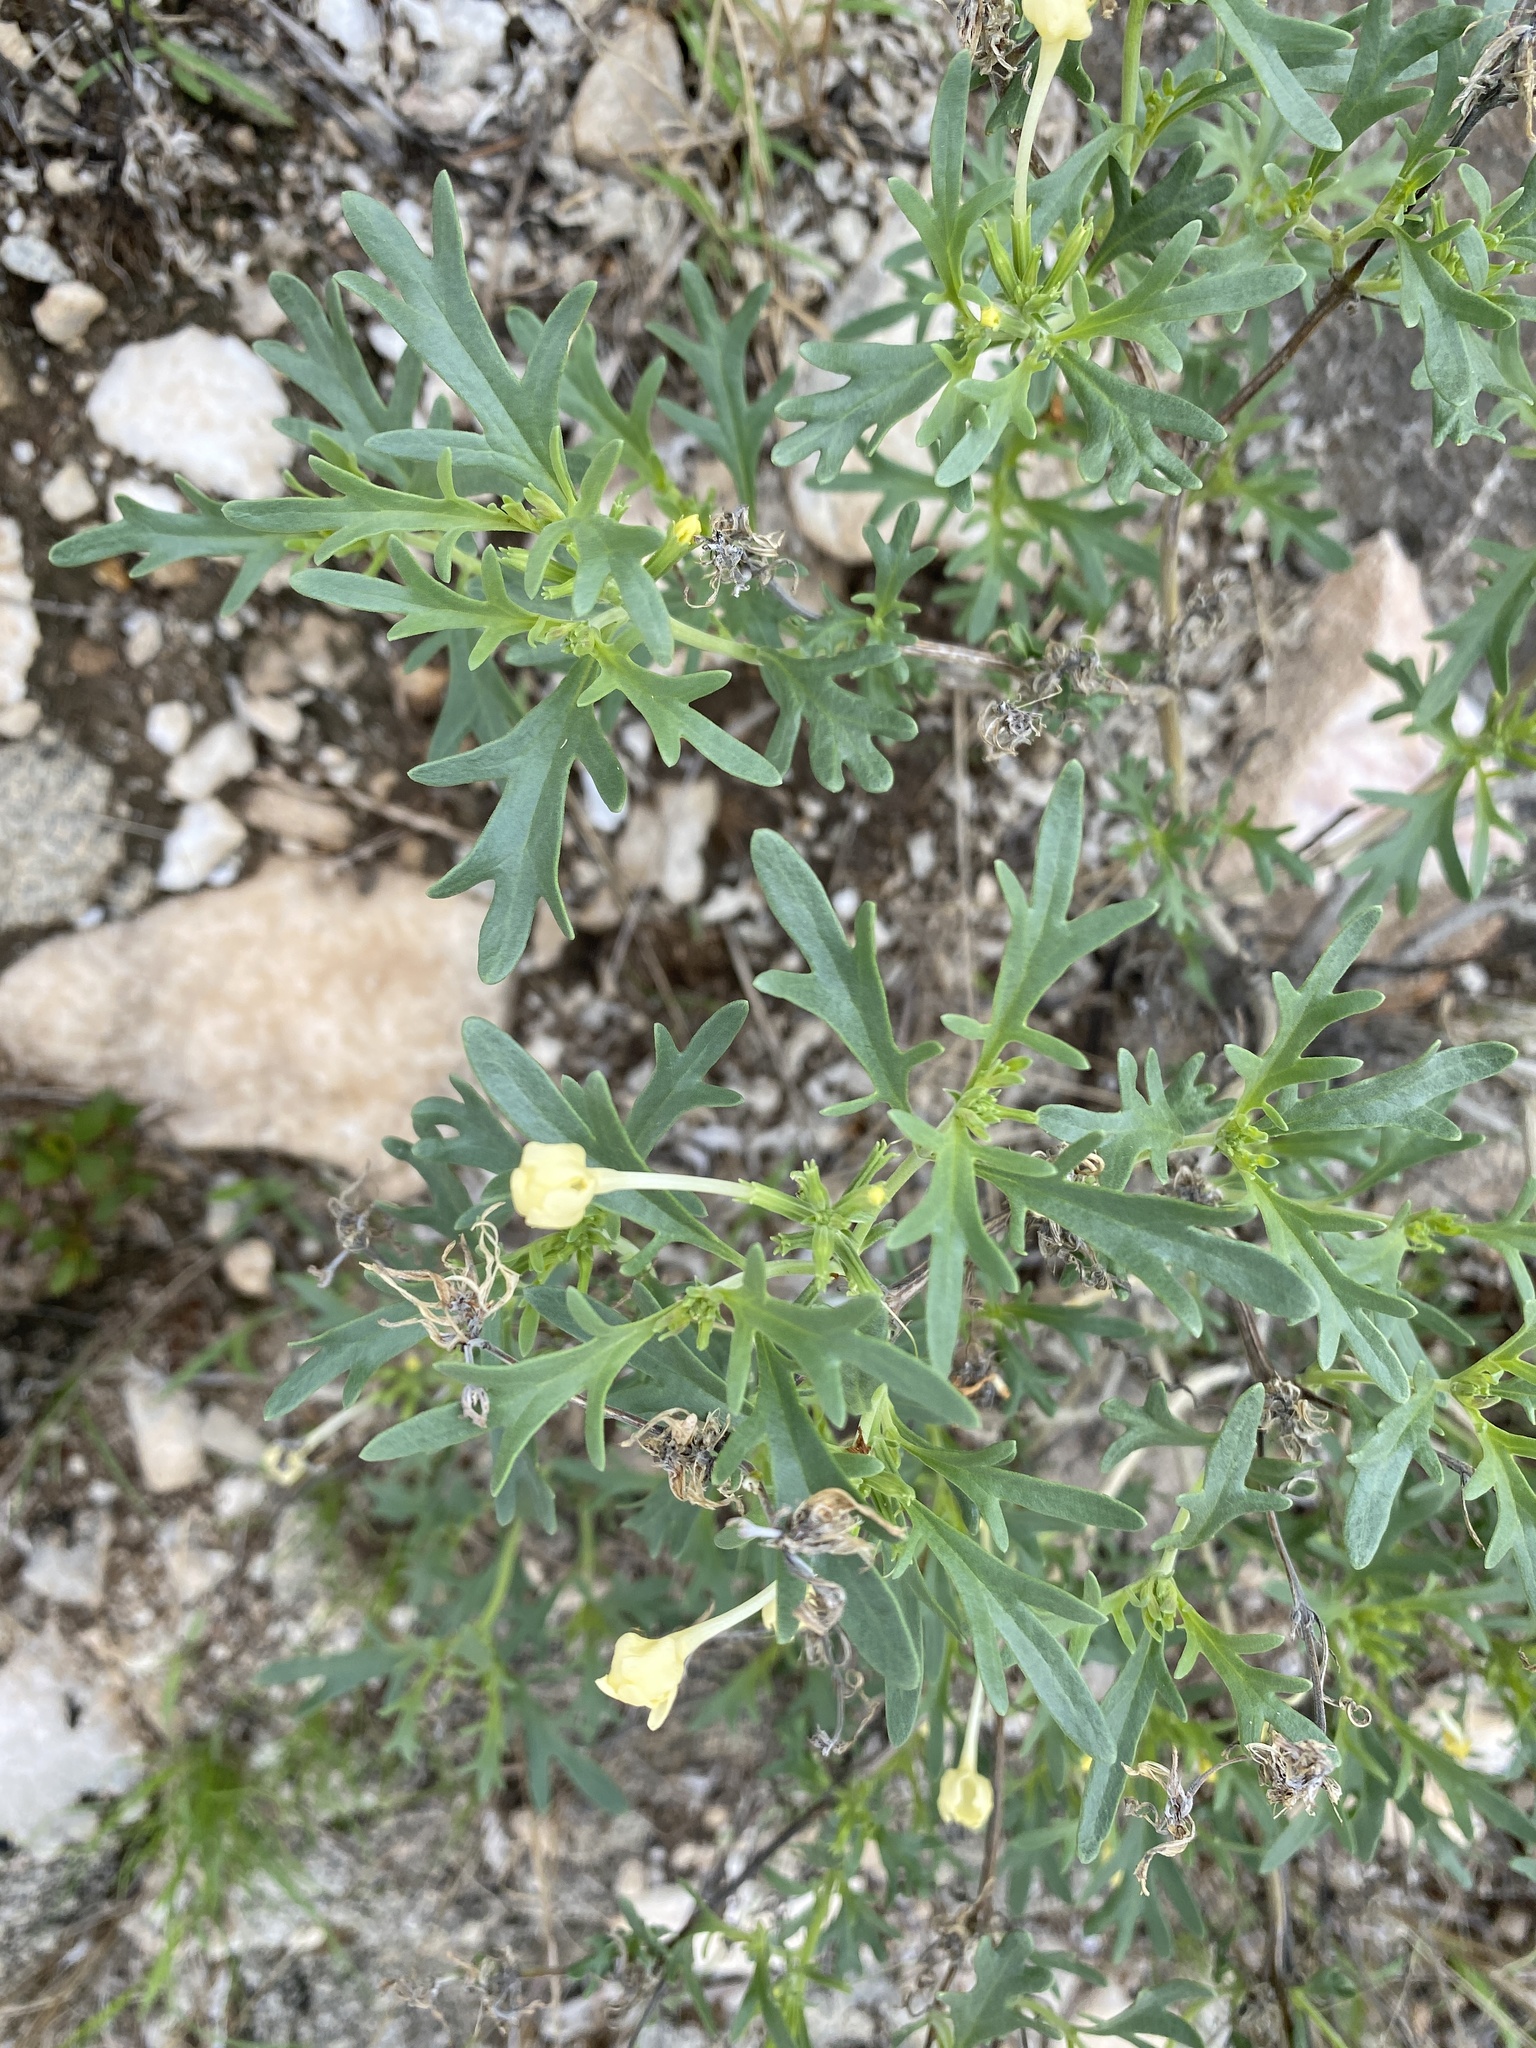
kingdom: Plantae
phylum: Tracheophyta
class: Magnoliopsida
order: Lamiales
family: Verbenaceae
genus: Chascanum
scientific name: Chascanum pinnatifidum
